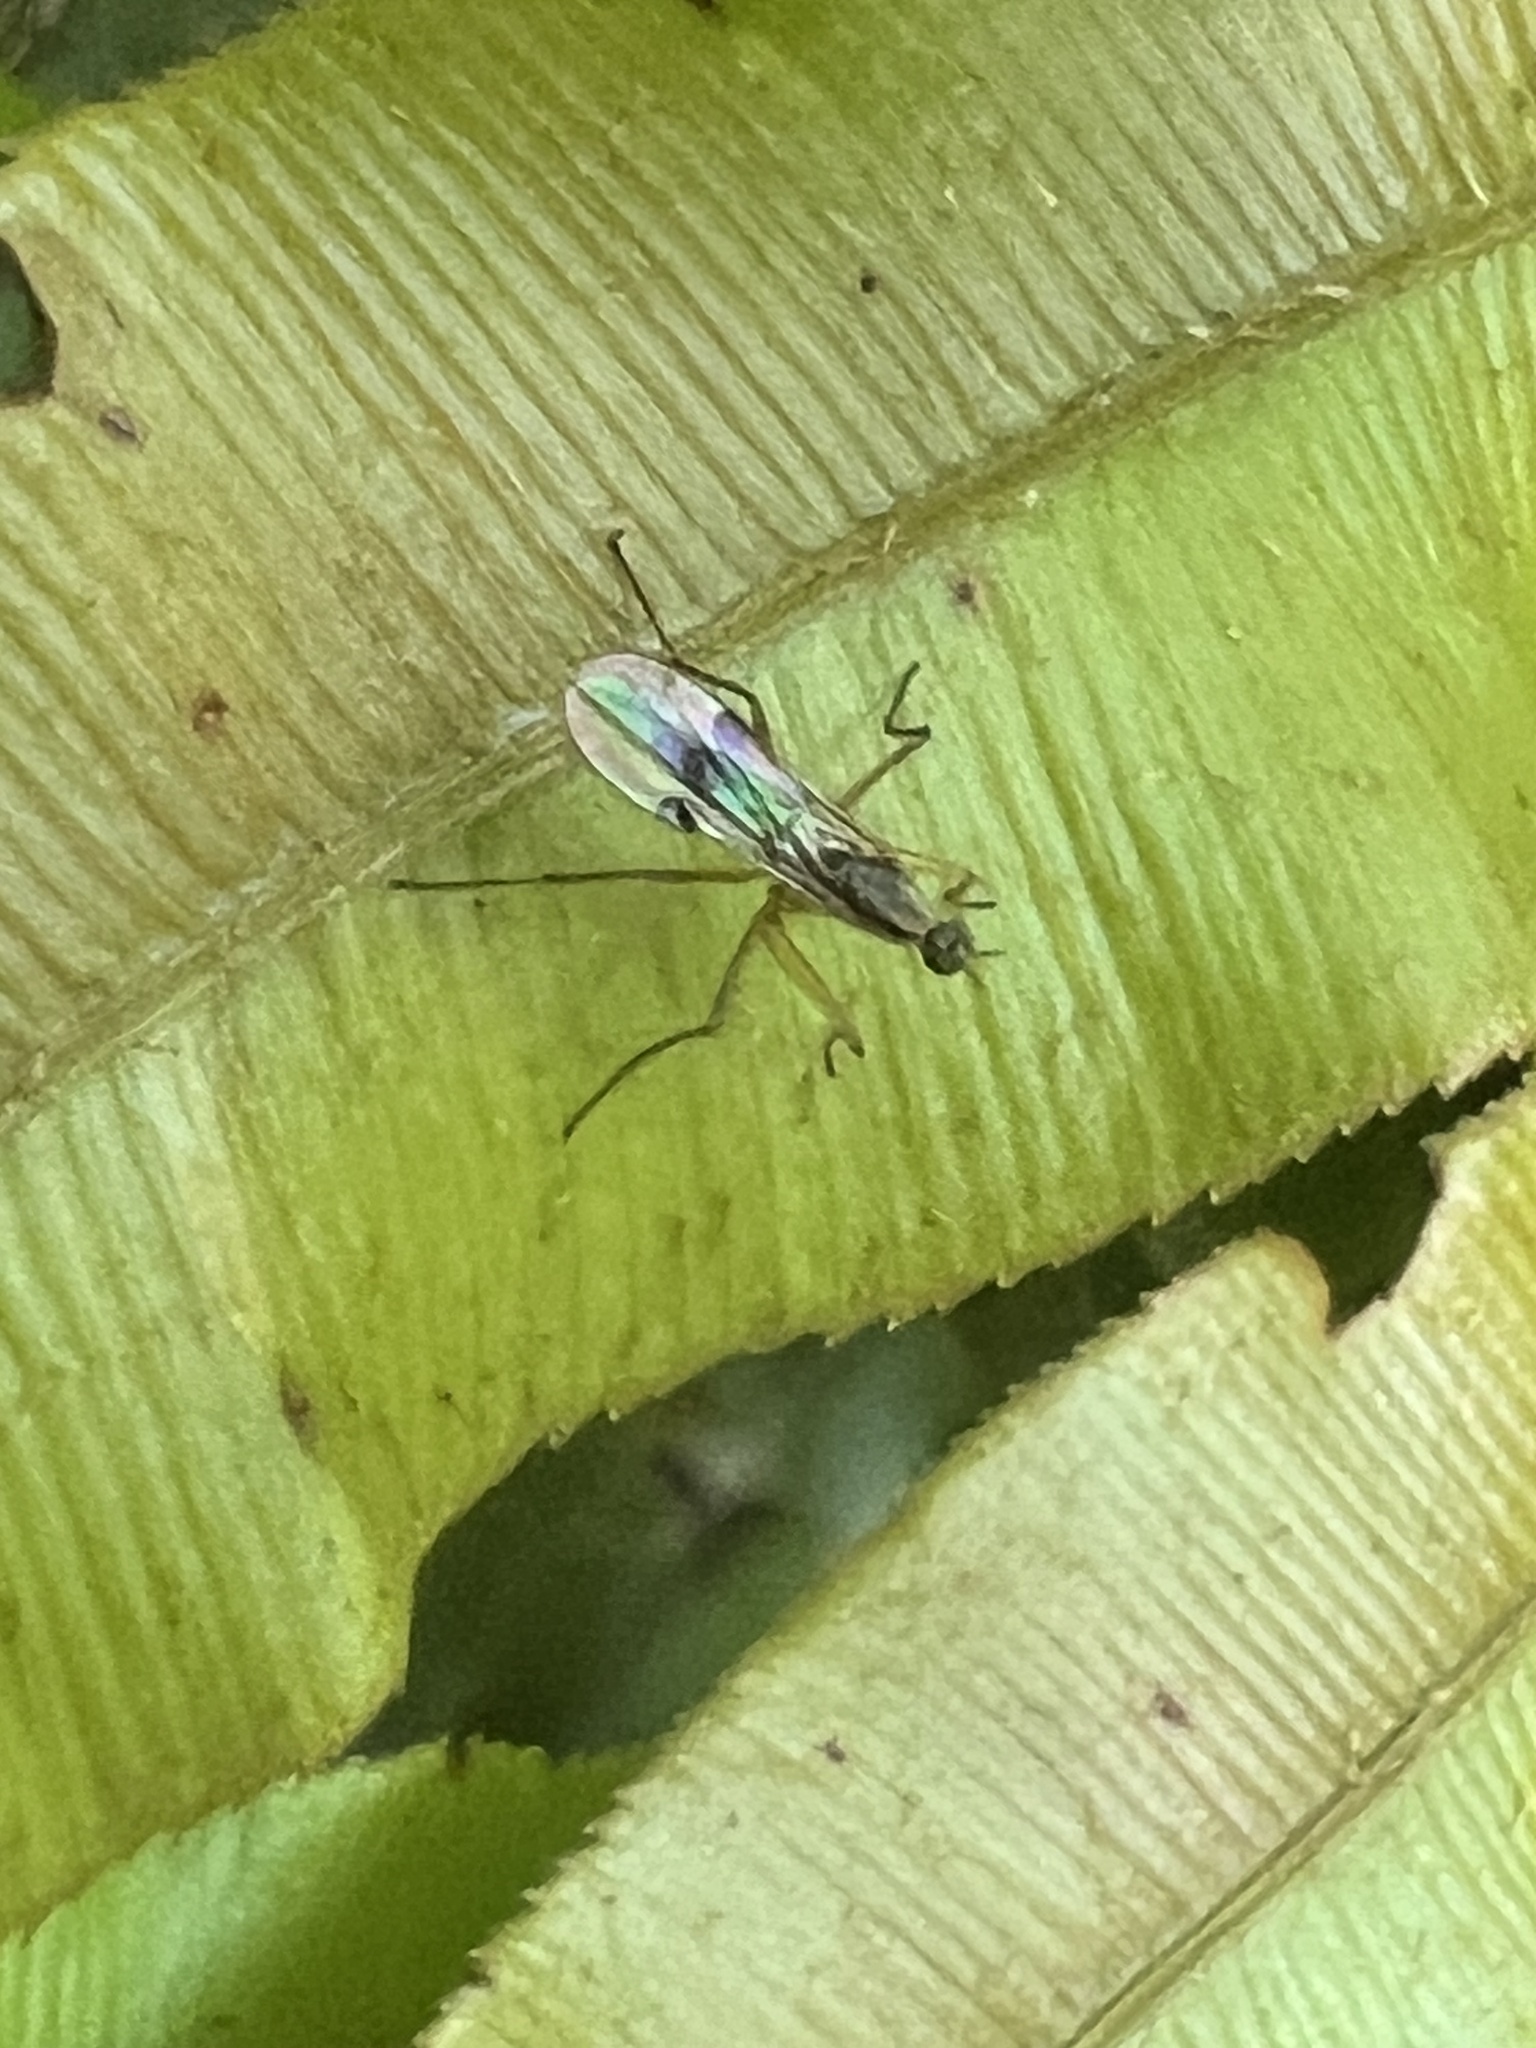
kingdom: Animalia
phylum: Arthropoda
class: Insecta
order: Diptera
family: Empididae
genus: Chelipoda
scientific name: Chelipoda mirabilis
